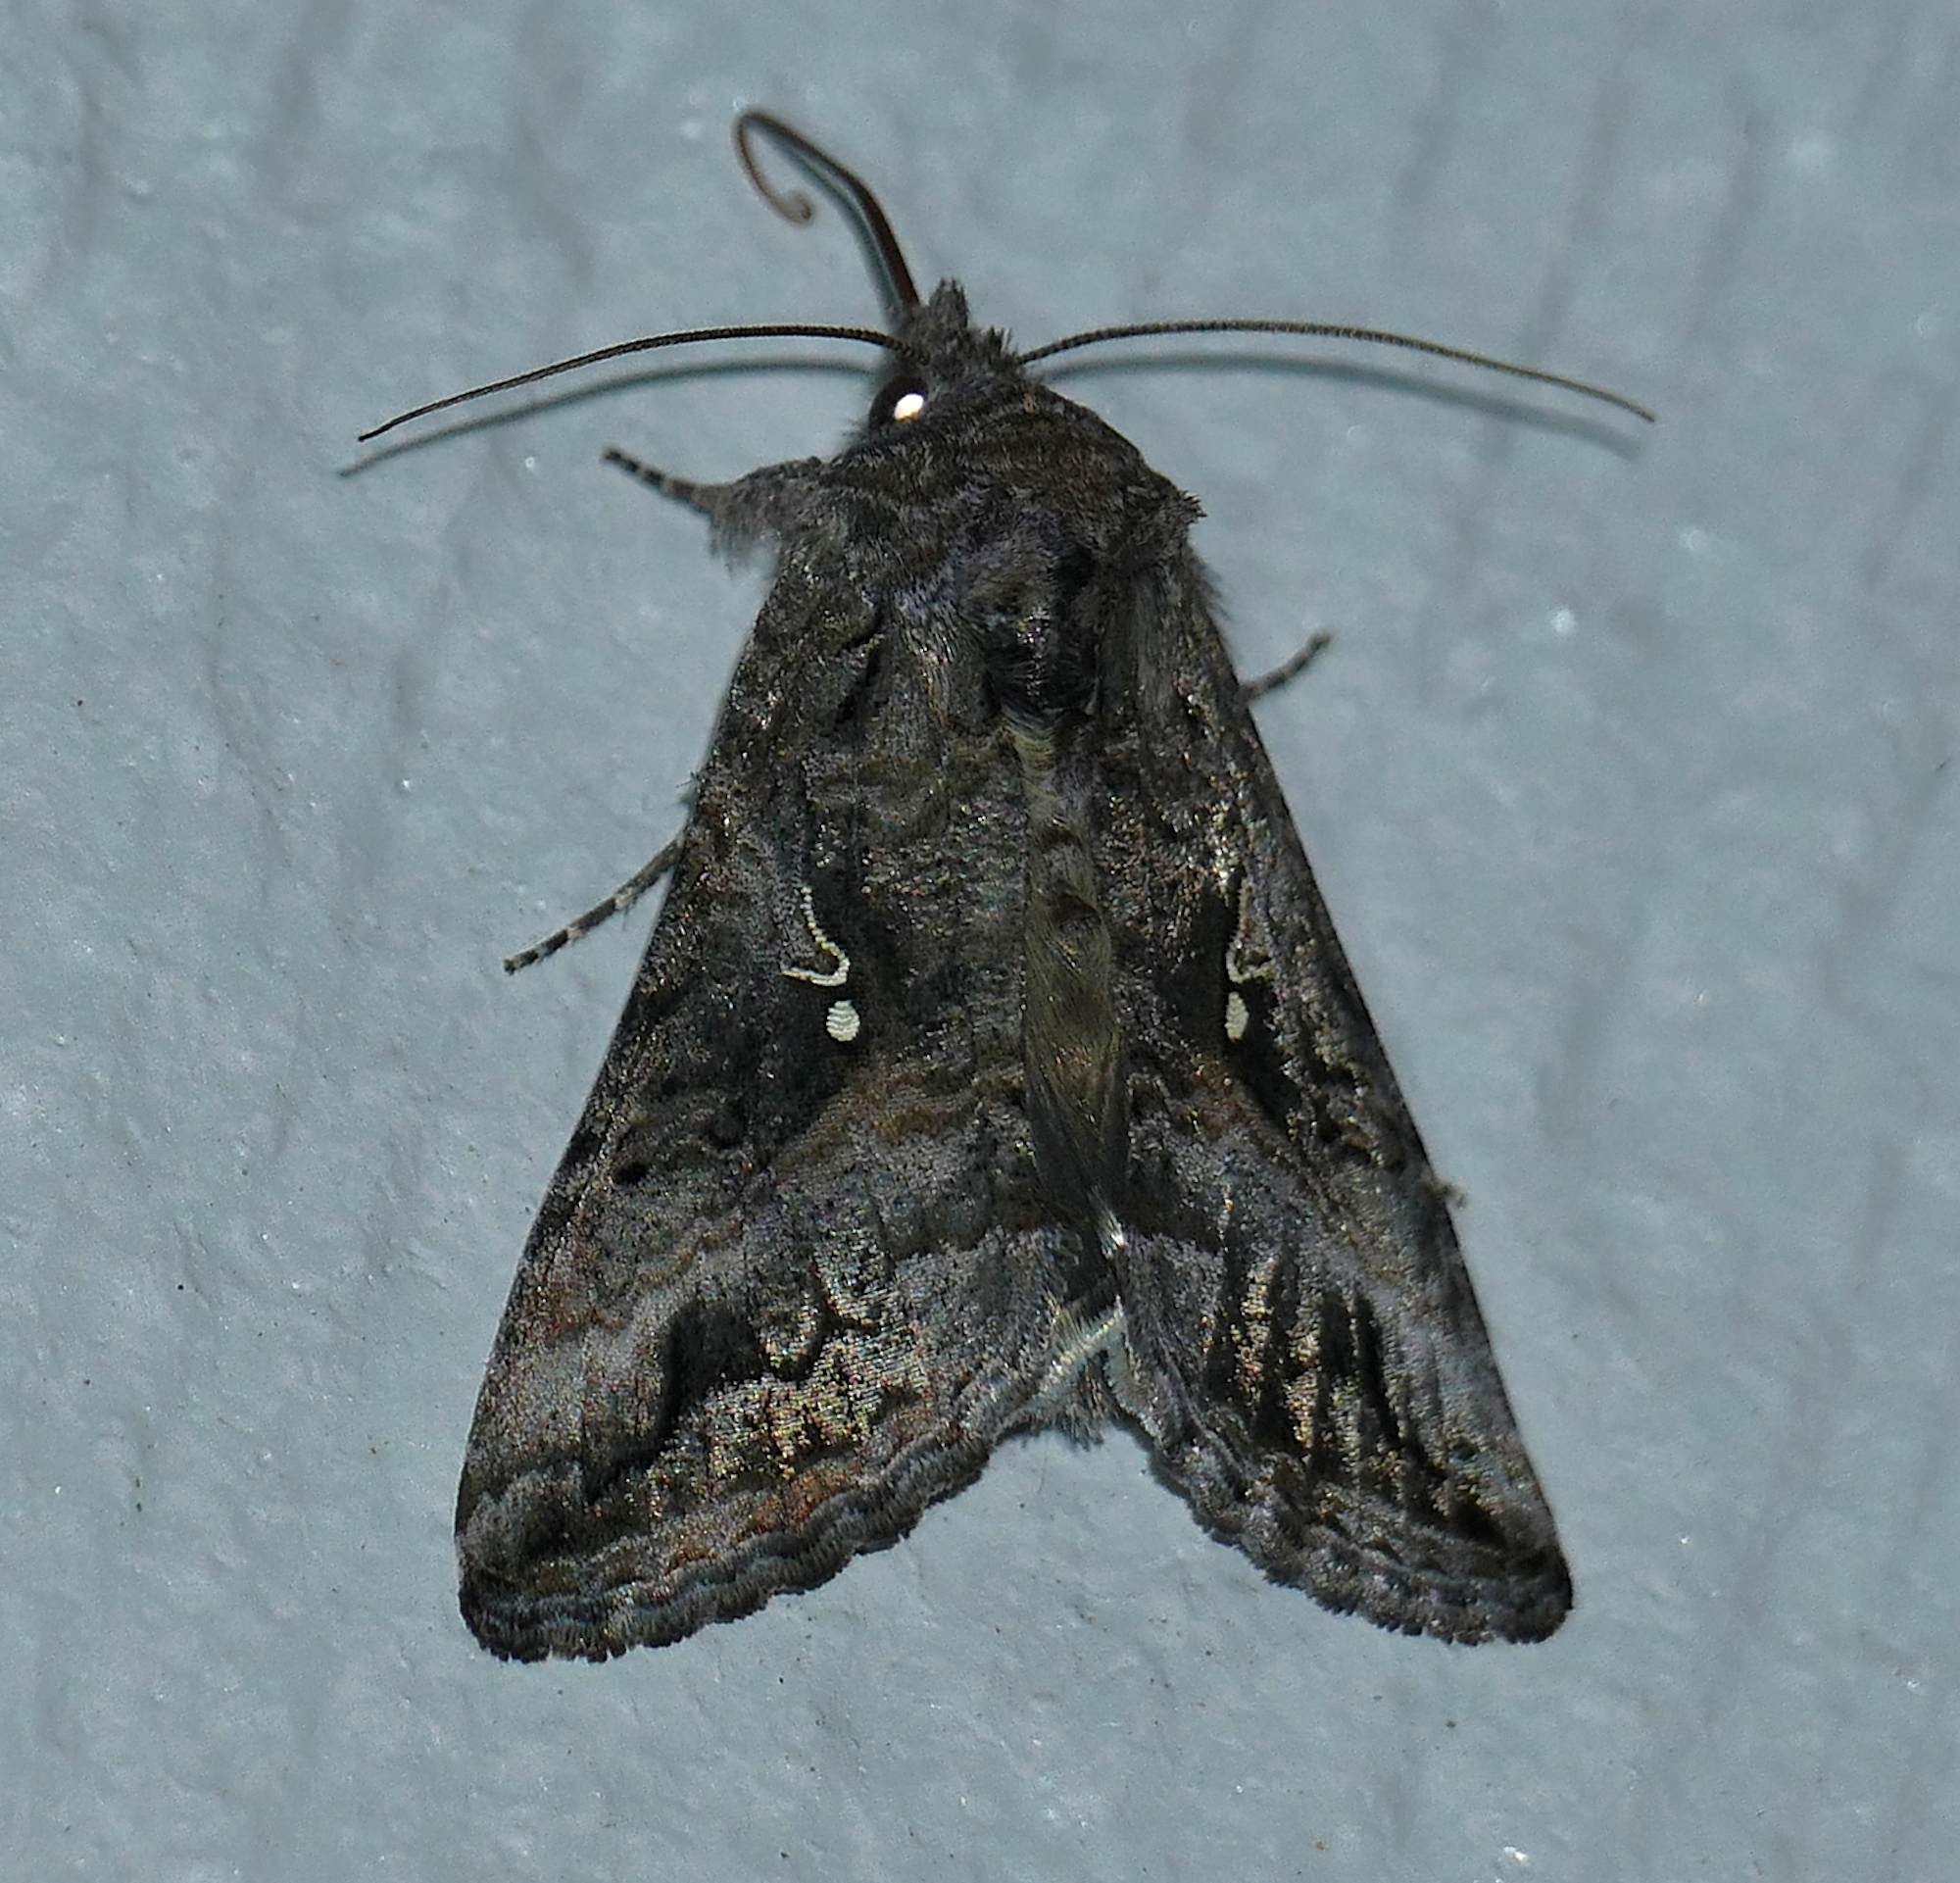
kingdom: Animalia
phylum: Arthropoda
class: Insecta
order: Lepidoptera
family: Noctuidae
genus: Rachiplusia
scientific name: Rachiplusia ou
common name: Gray looper moth
